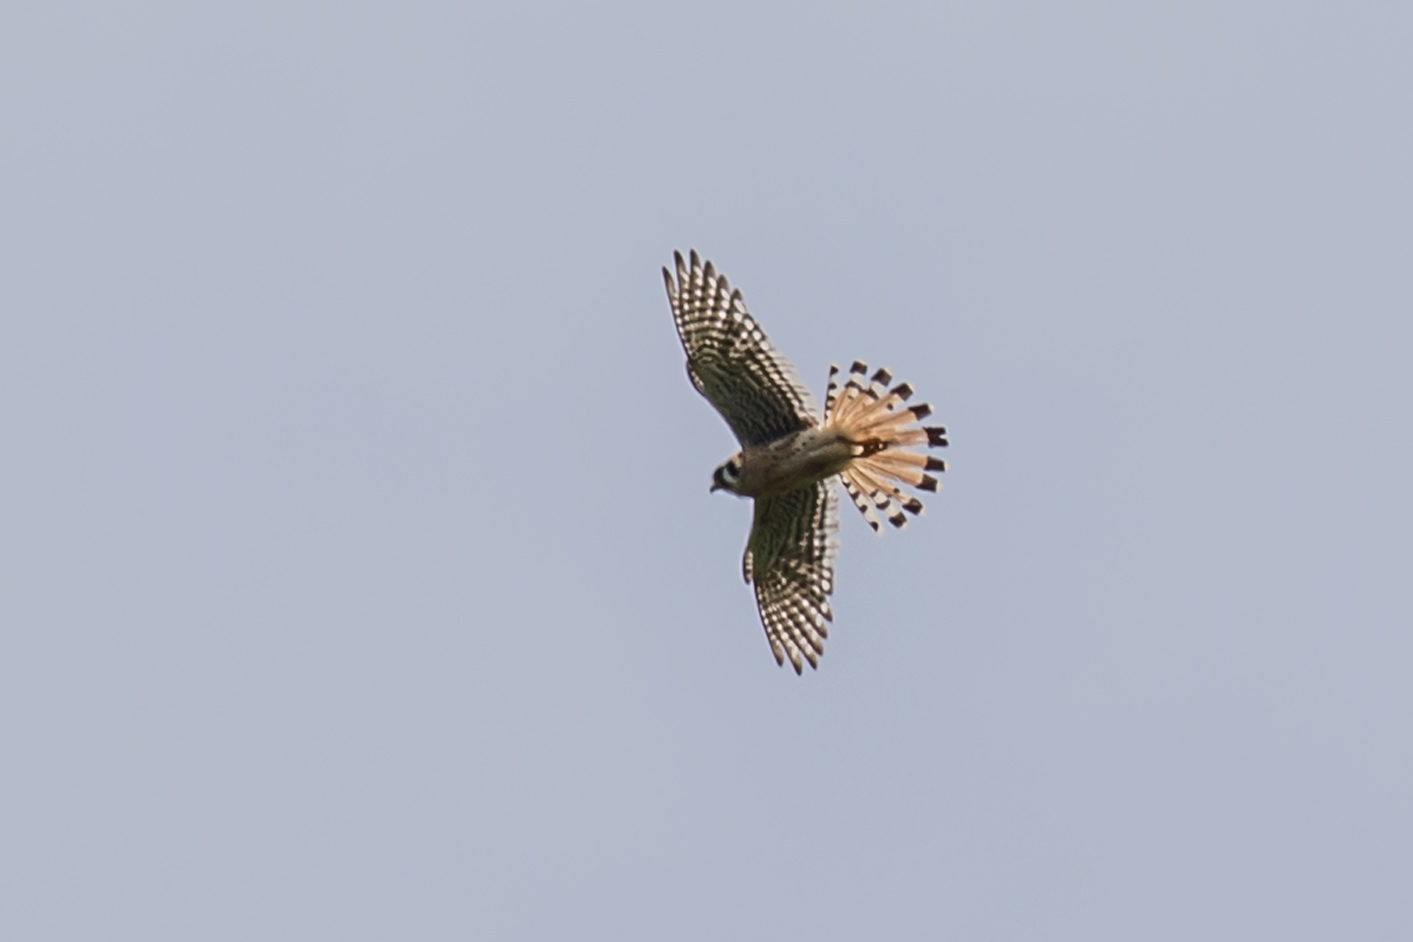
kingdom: Animalia
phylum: Chordata
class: Aves
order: Falconiformes
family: Falconidae
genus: Falco
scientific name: Falco sparverius
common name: American kestrel
